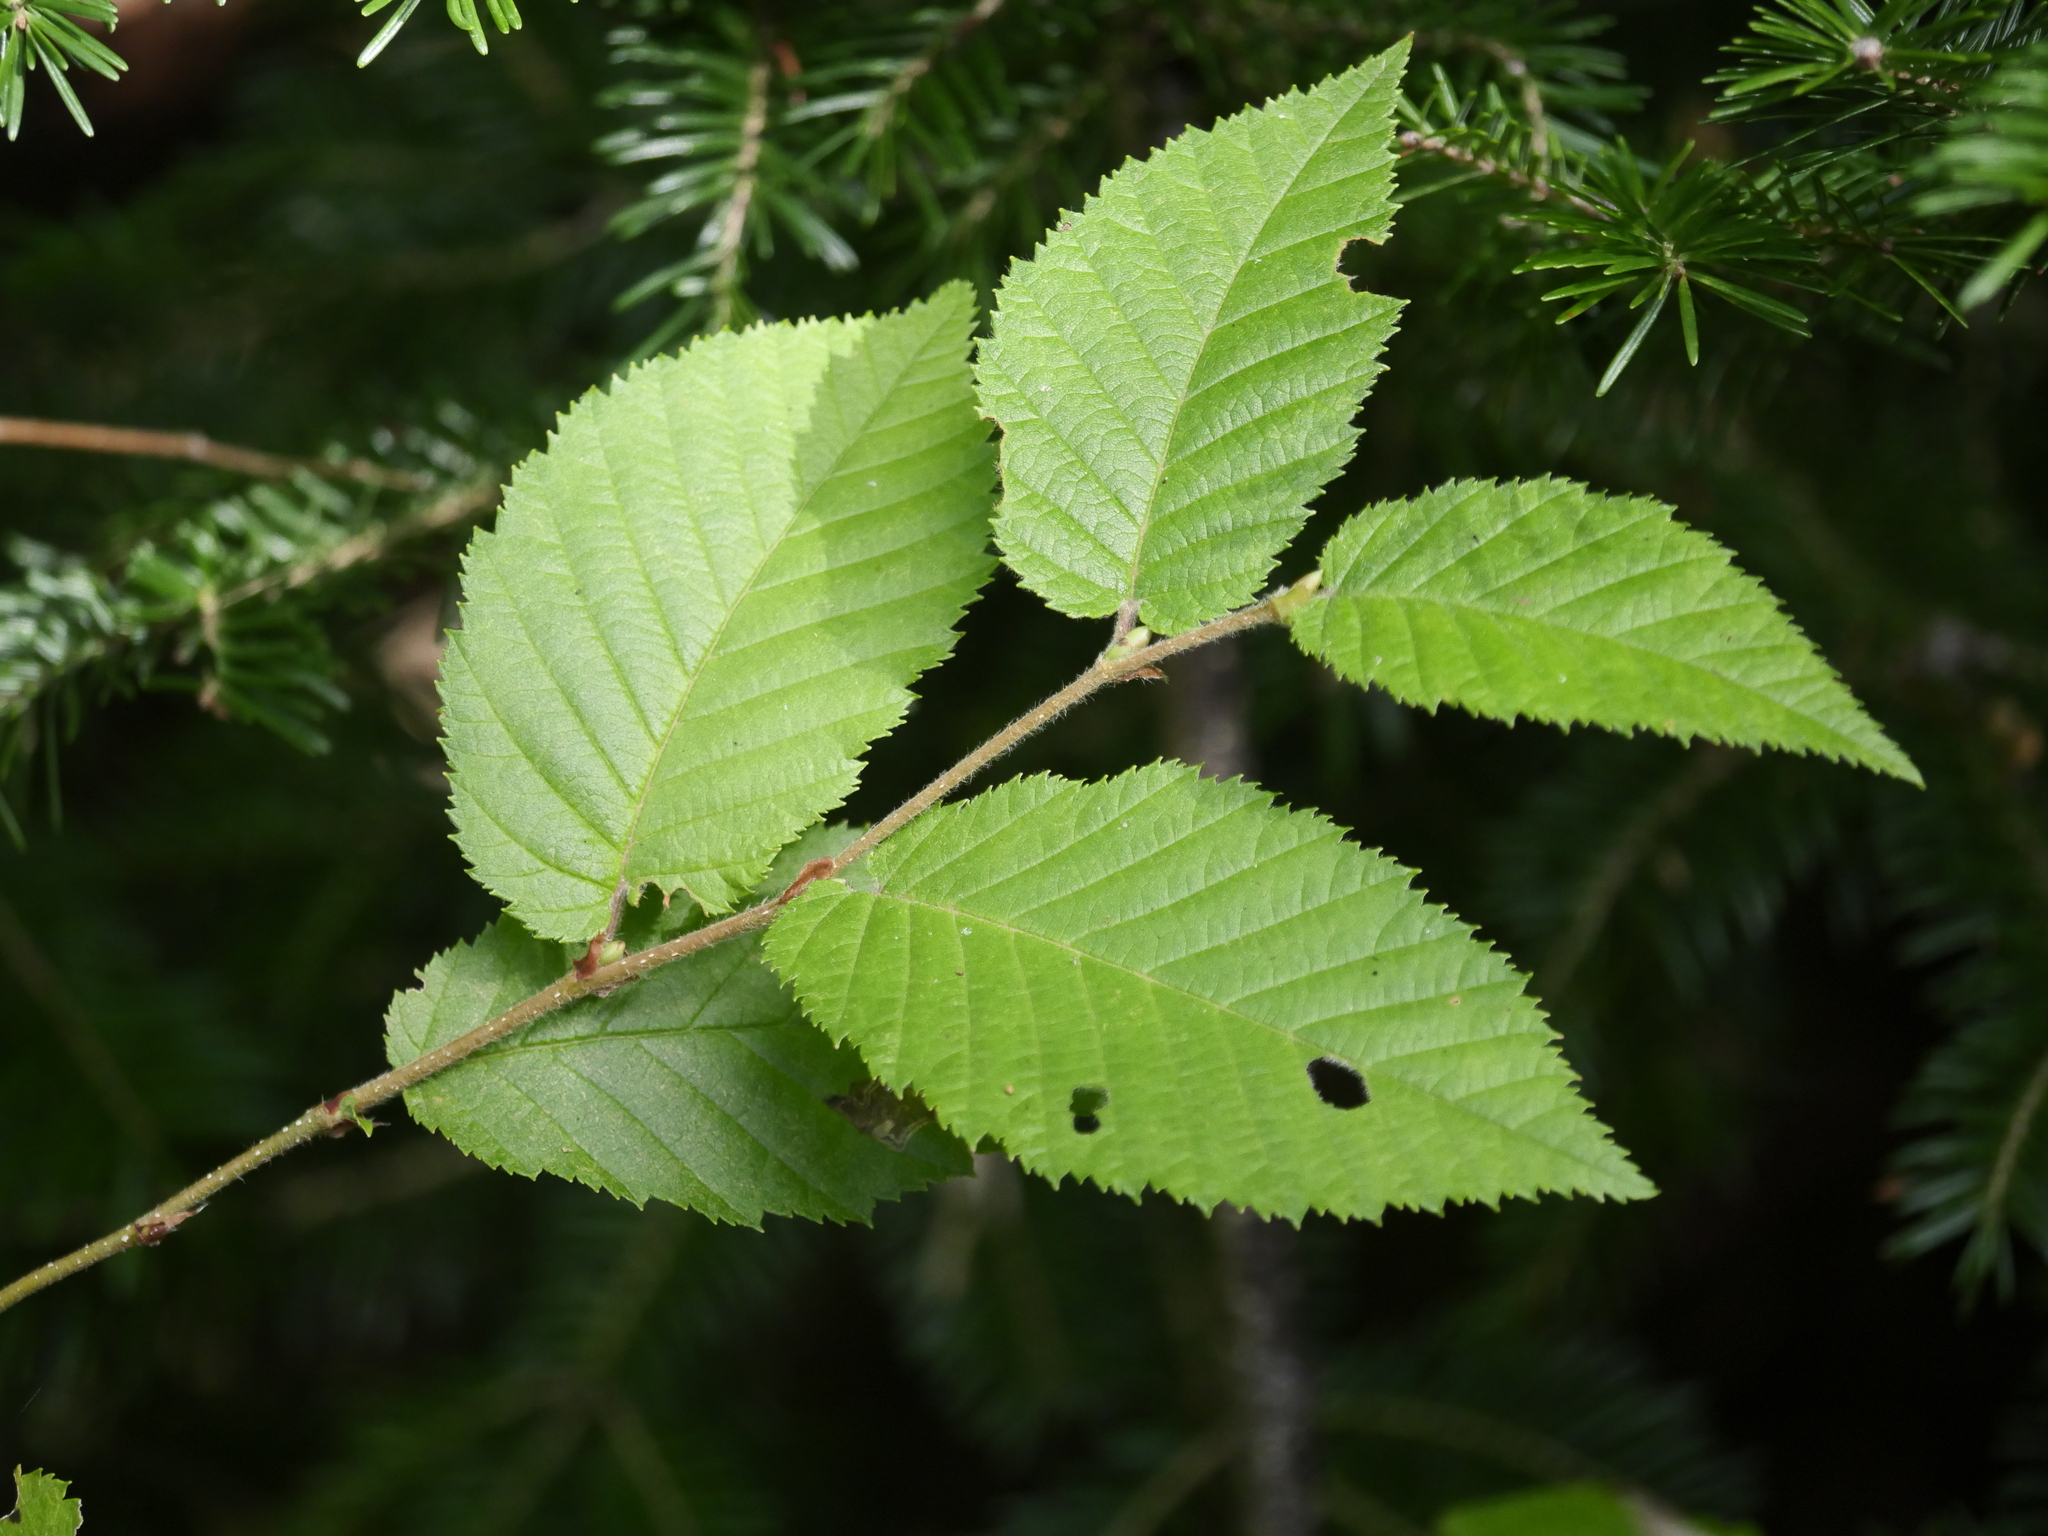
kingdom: Plantae
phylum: Tracheophyta
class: Magnoliopsida
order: Fagales
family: Betulaceae
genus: Betula
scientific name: Betula alleghaniensis
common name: Yellow birch
